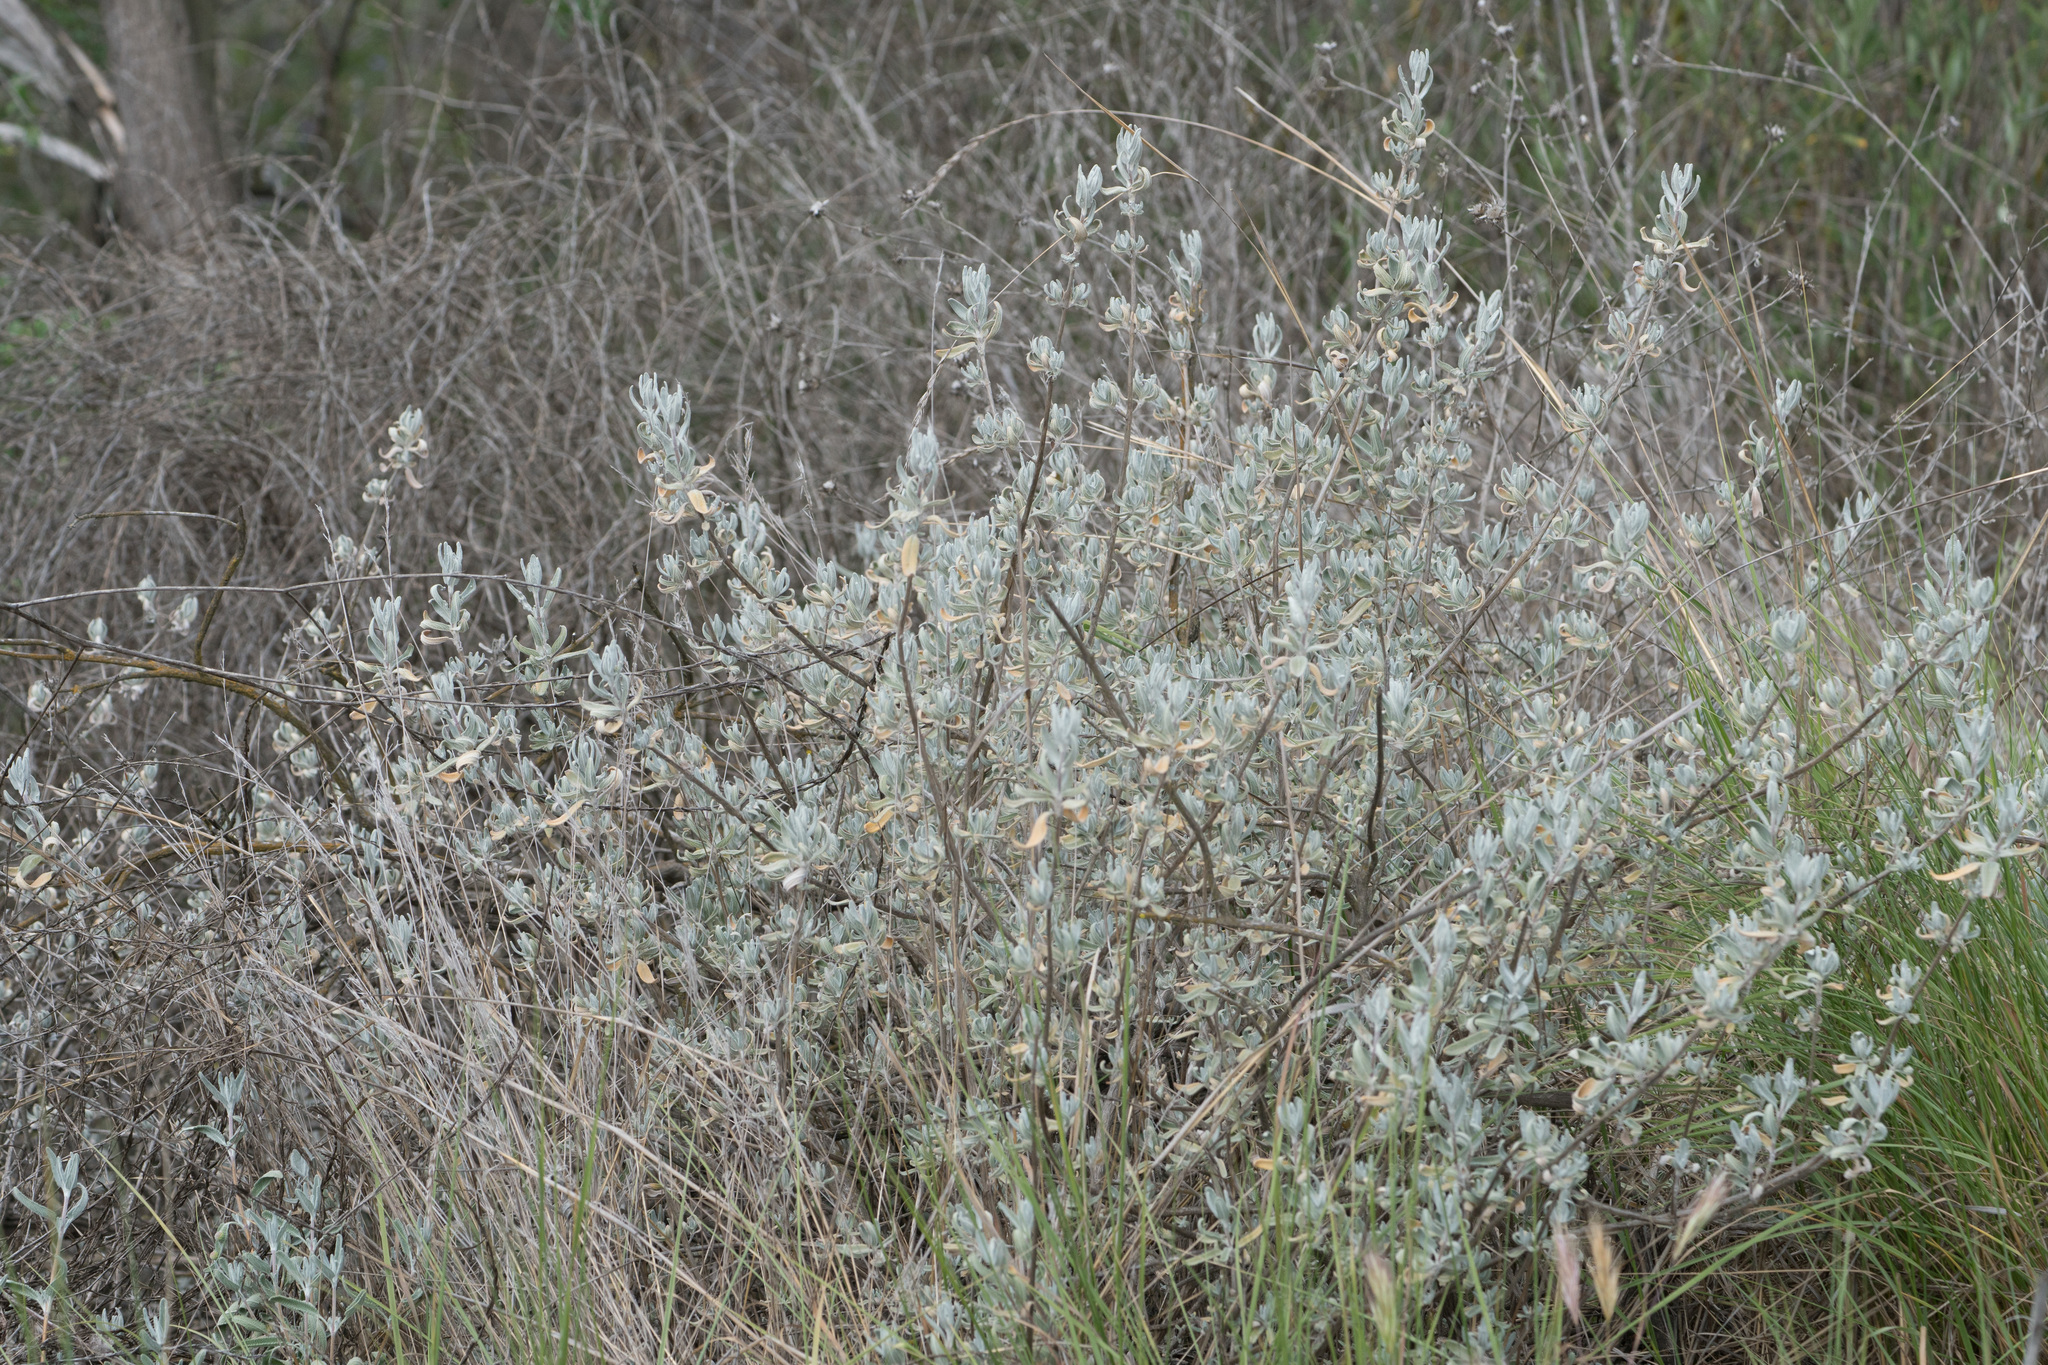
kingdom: Plantae
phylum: Tracheophyta
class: Magnoliopsida
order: Lamiales
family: Lamiaceae
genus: Salvia
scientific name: Salvia leucophylla
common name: Purple sage
